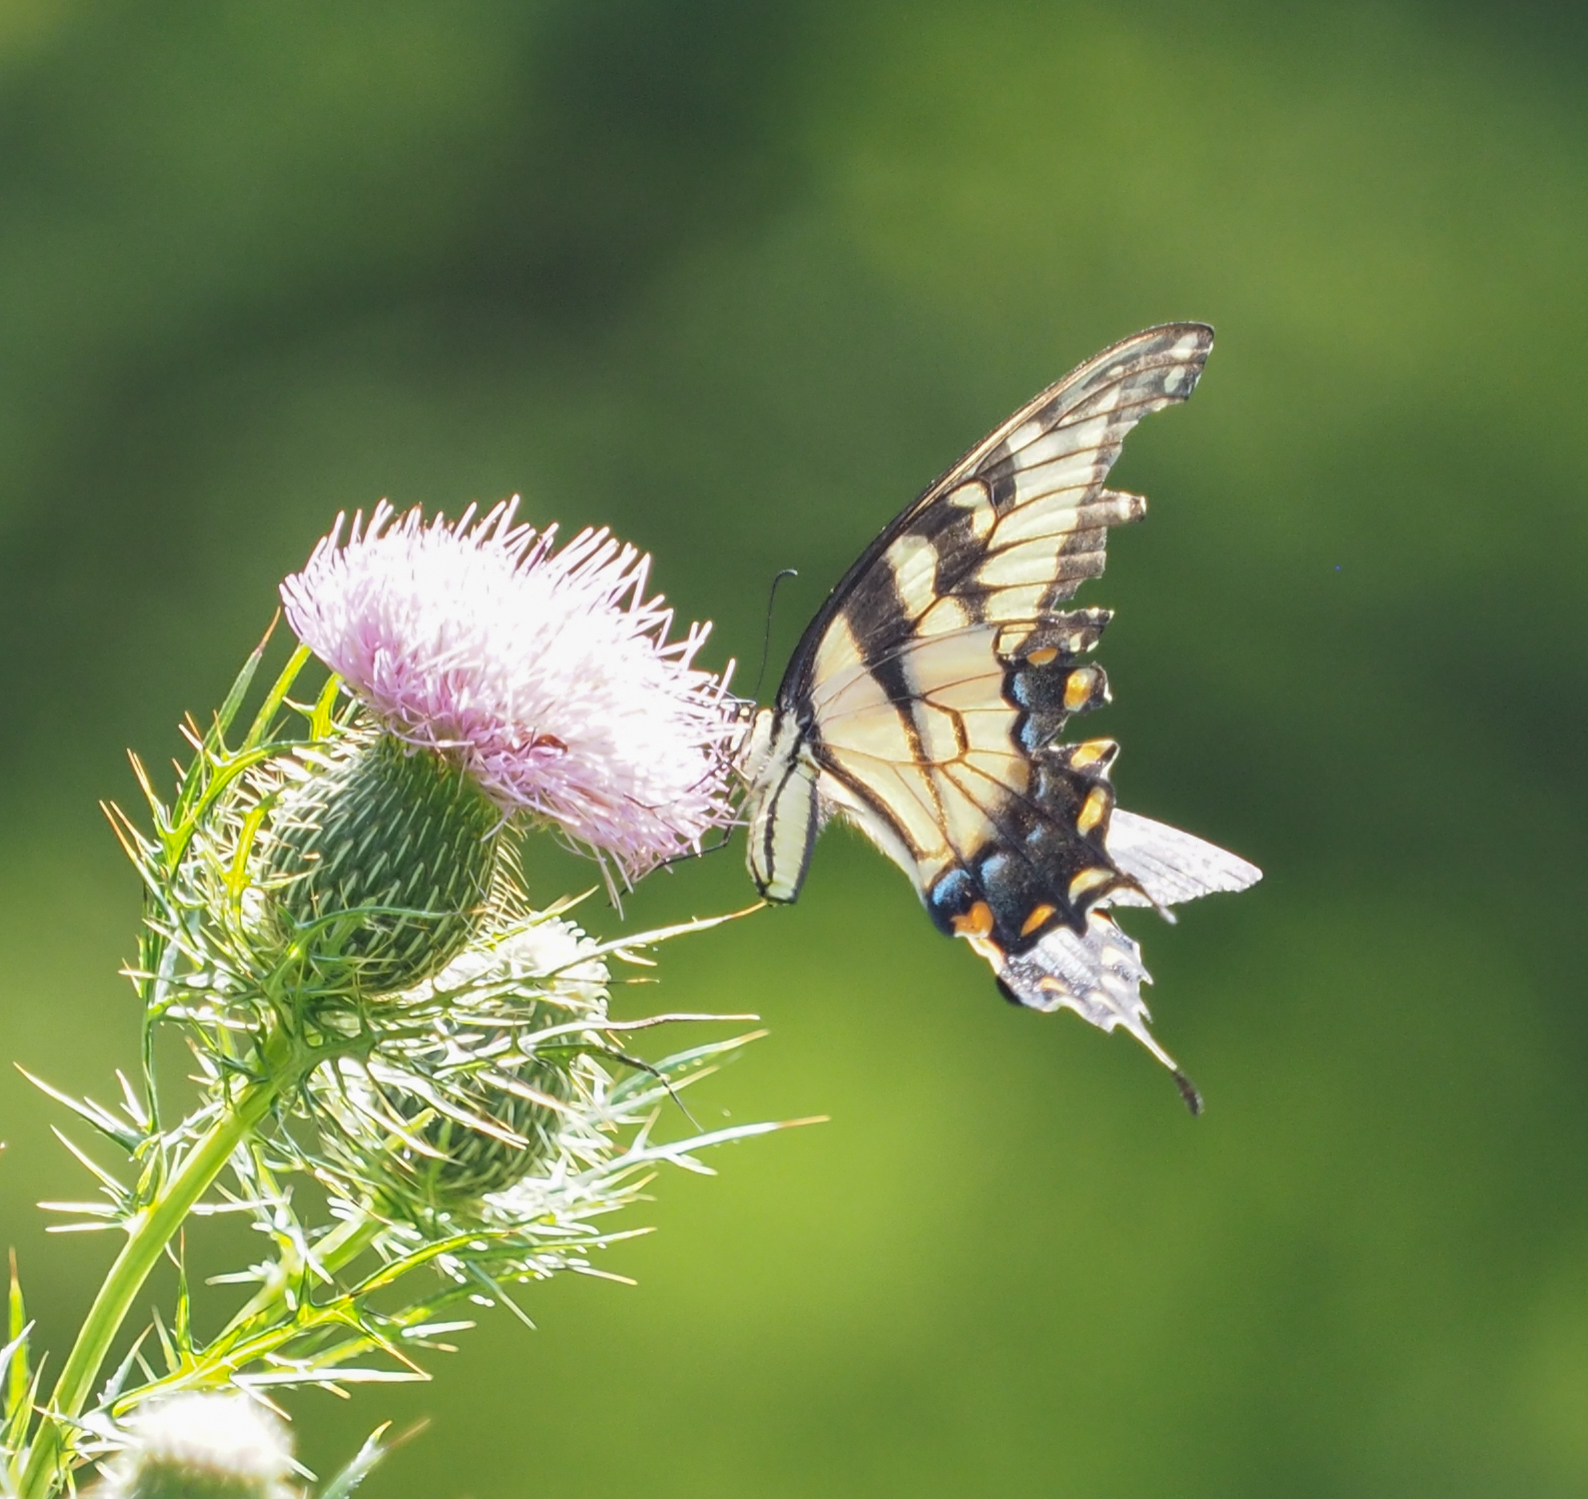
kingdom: Animalia
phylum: Arthropoda
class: Insecta
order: Lepidoptera
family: Papilionidae
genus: Papilio
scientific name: Papilio glaucus
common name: Tiger swallowtail
